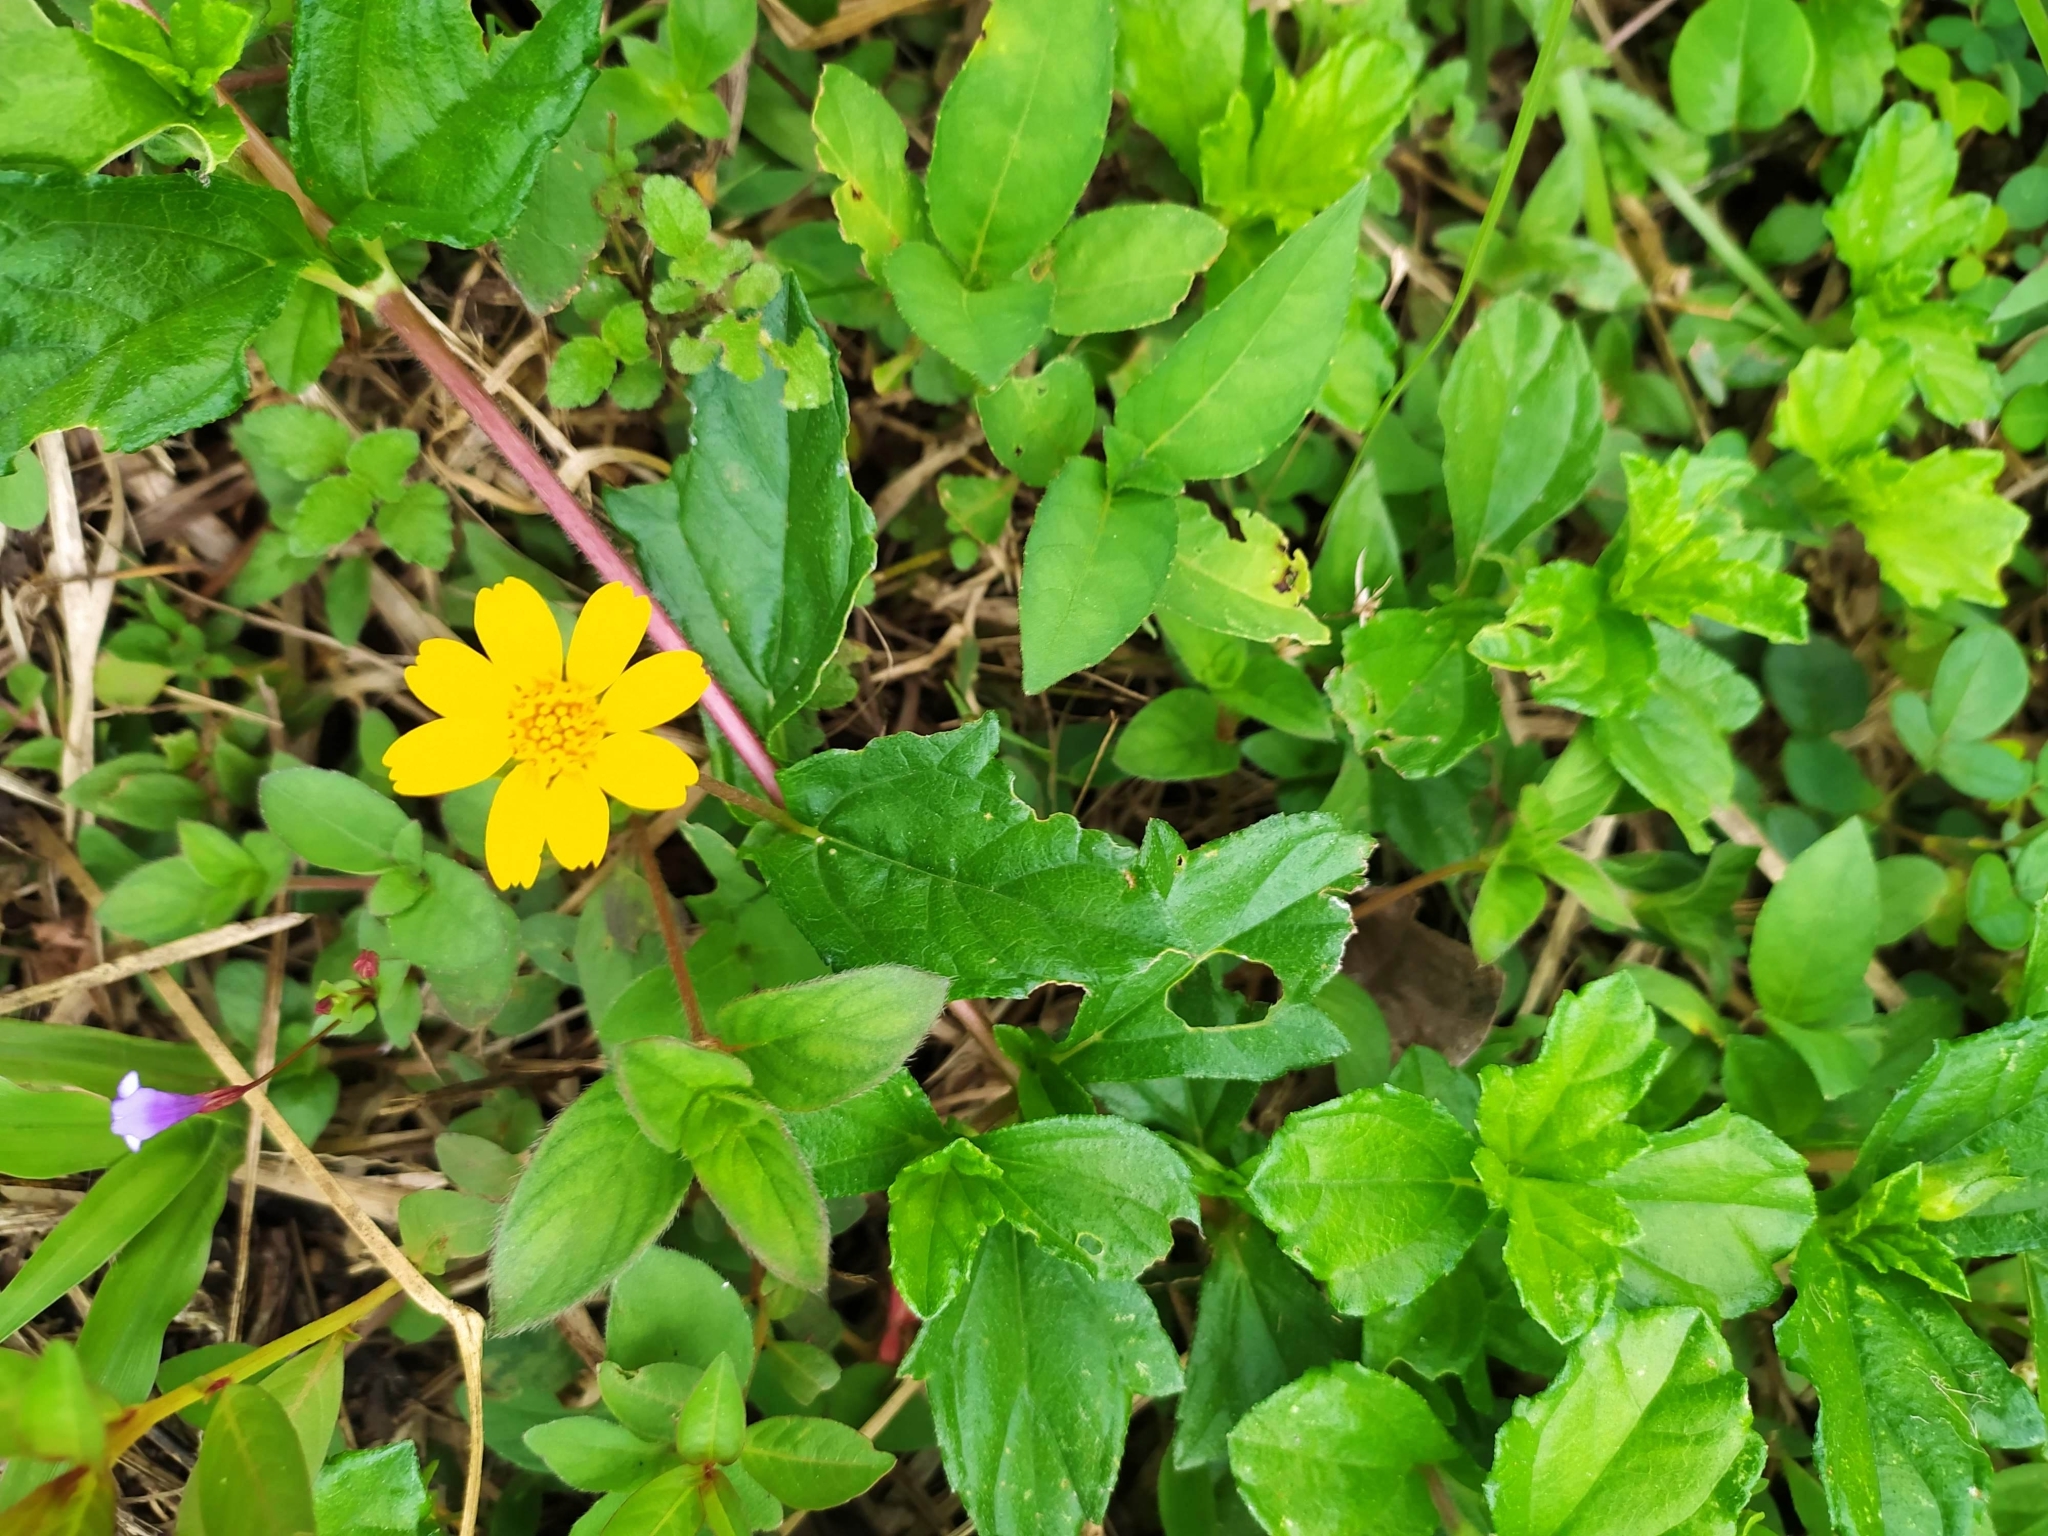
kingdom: Plantae
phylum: Tracheophyta
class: Magnoliopsida
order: Asterales
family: Asteraceae
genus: Sphagneticola
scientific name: Sphagneticola trilobata
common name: Bay biscayne creeping-oxeye
